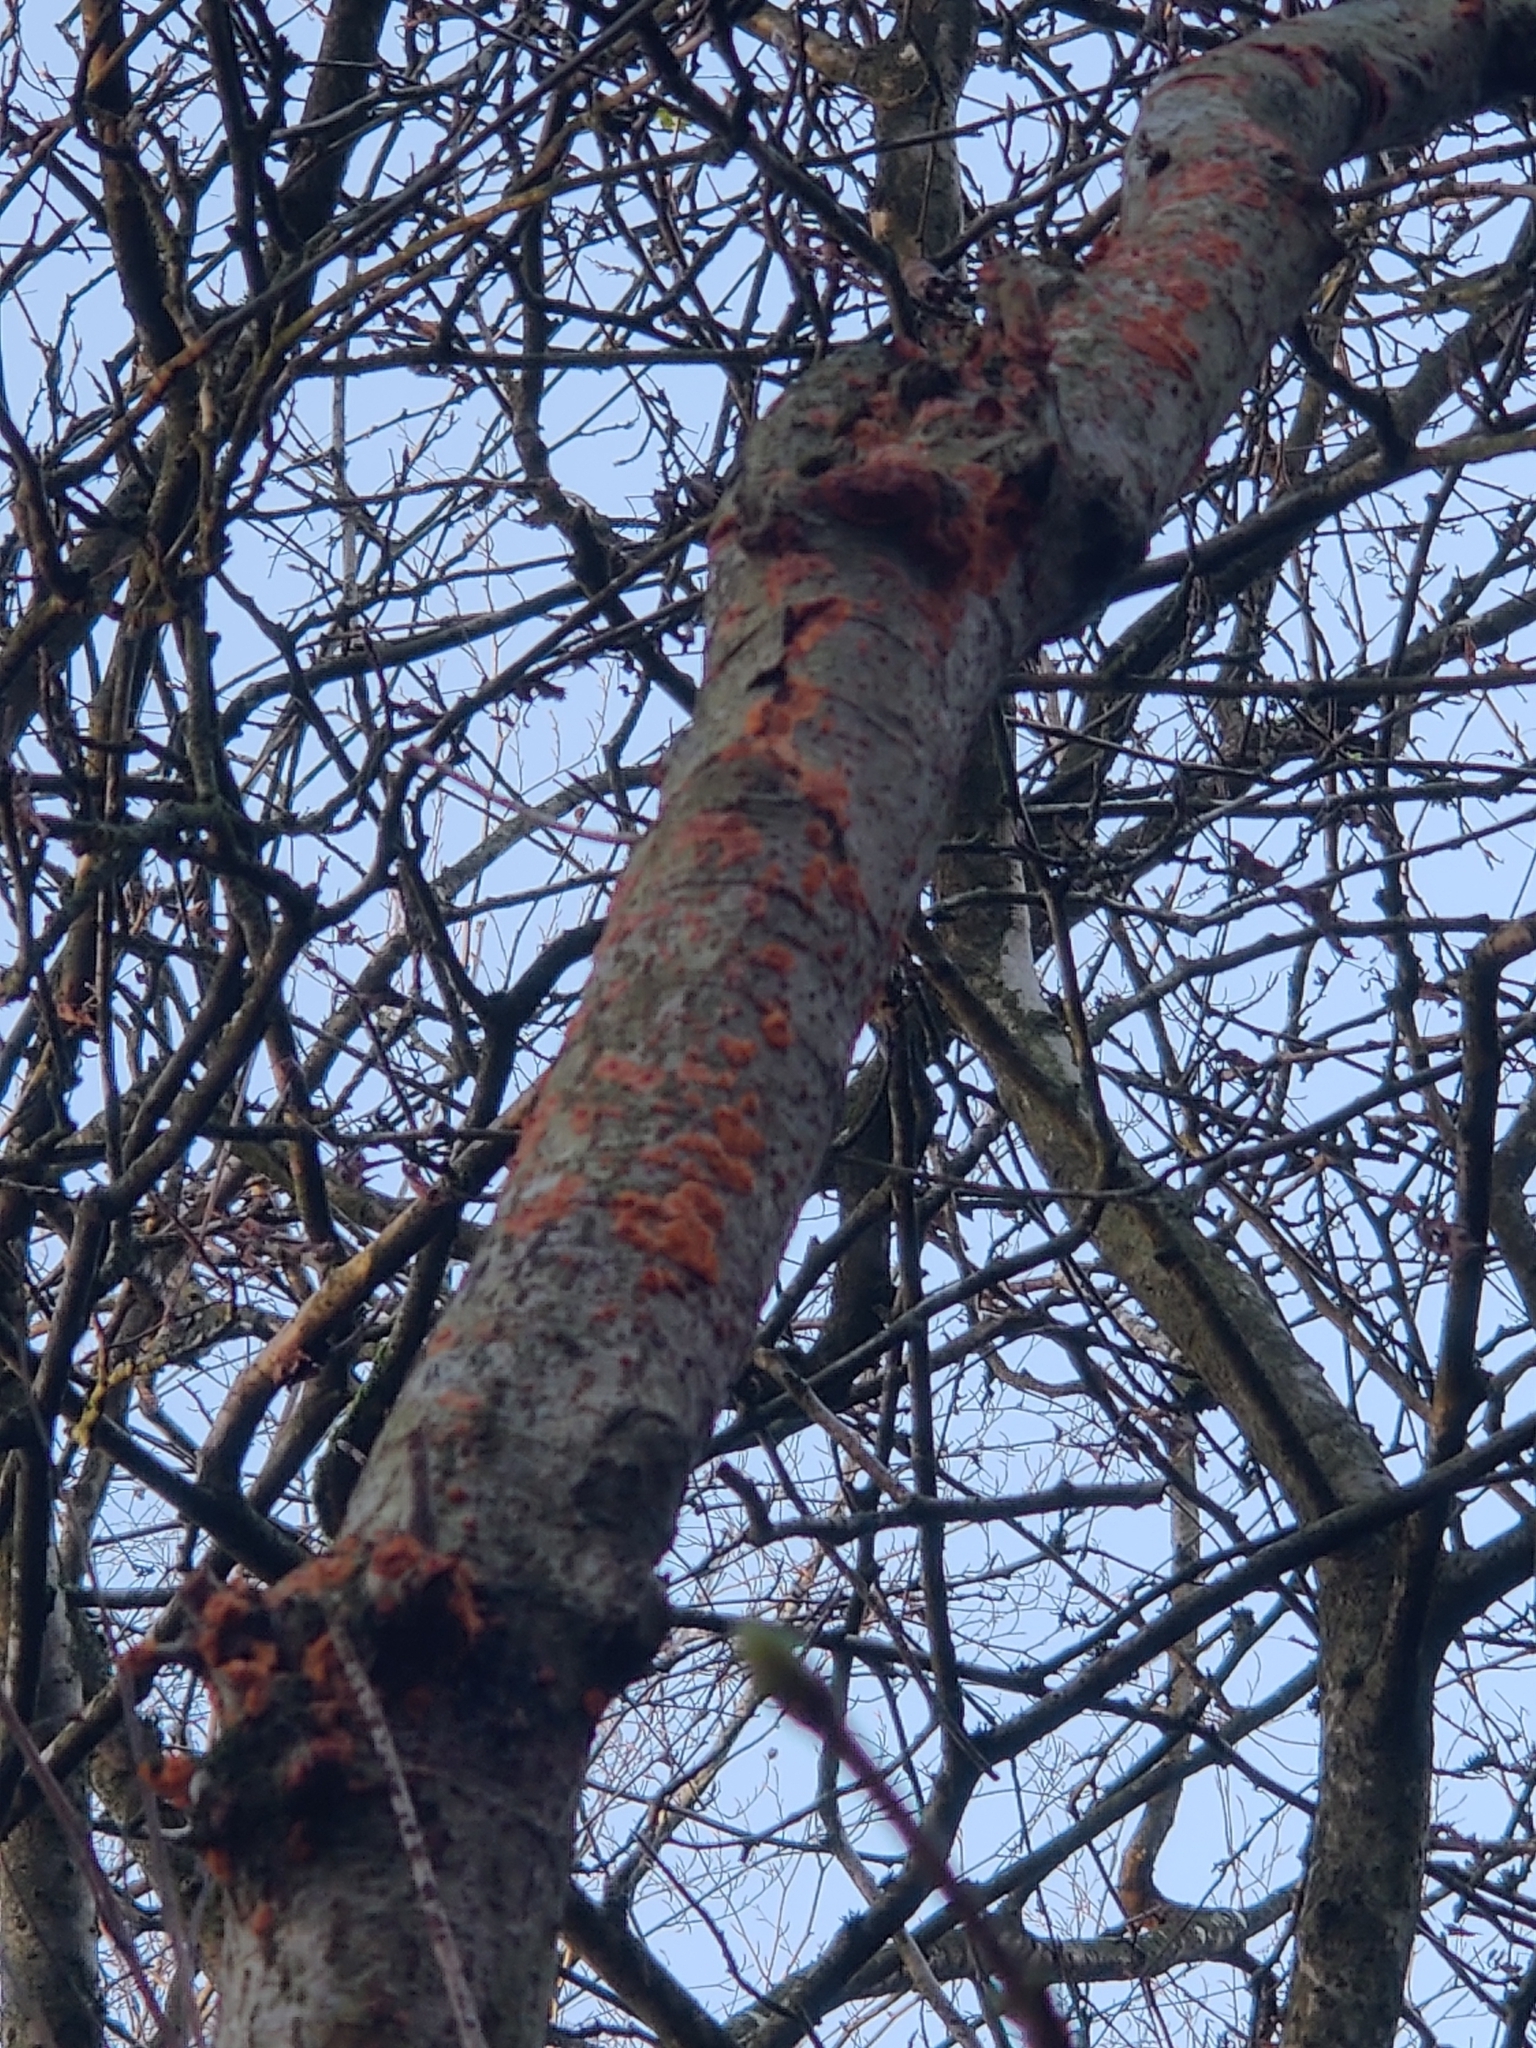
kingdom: Fungi
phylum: Basidiomycota
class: Agaricomycetes
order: Polyporales
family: Meruliaceae
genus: Phlebia
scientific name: Phlebia radiata
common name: Wrinkled crust
